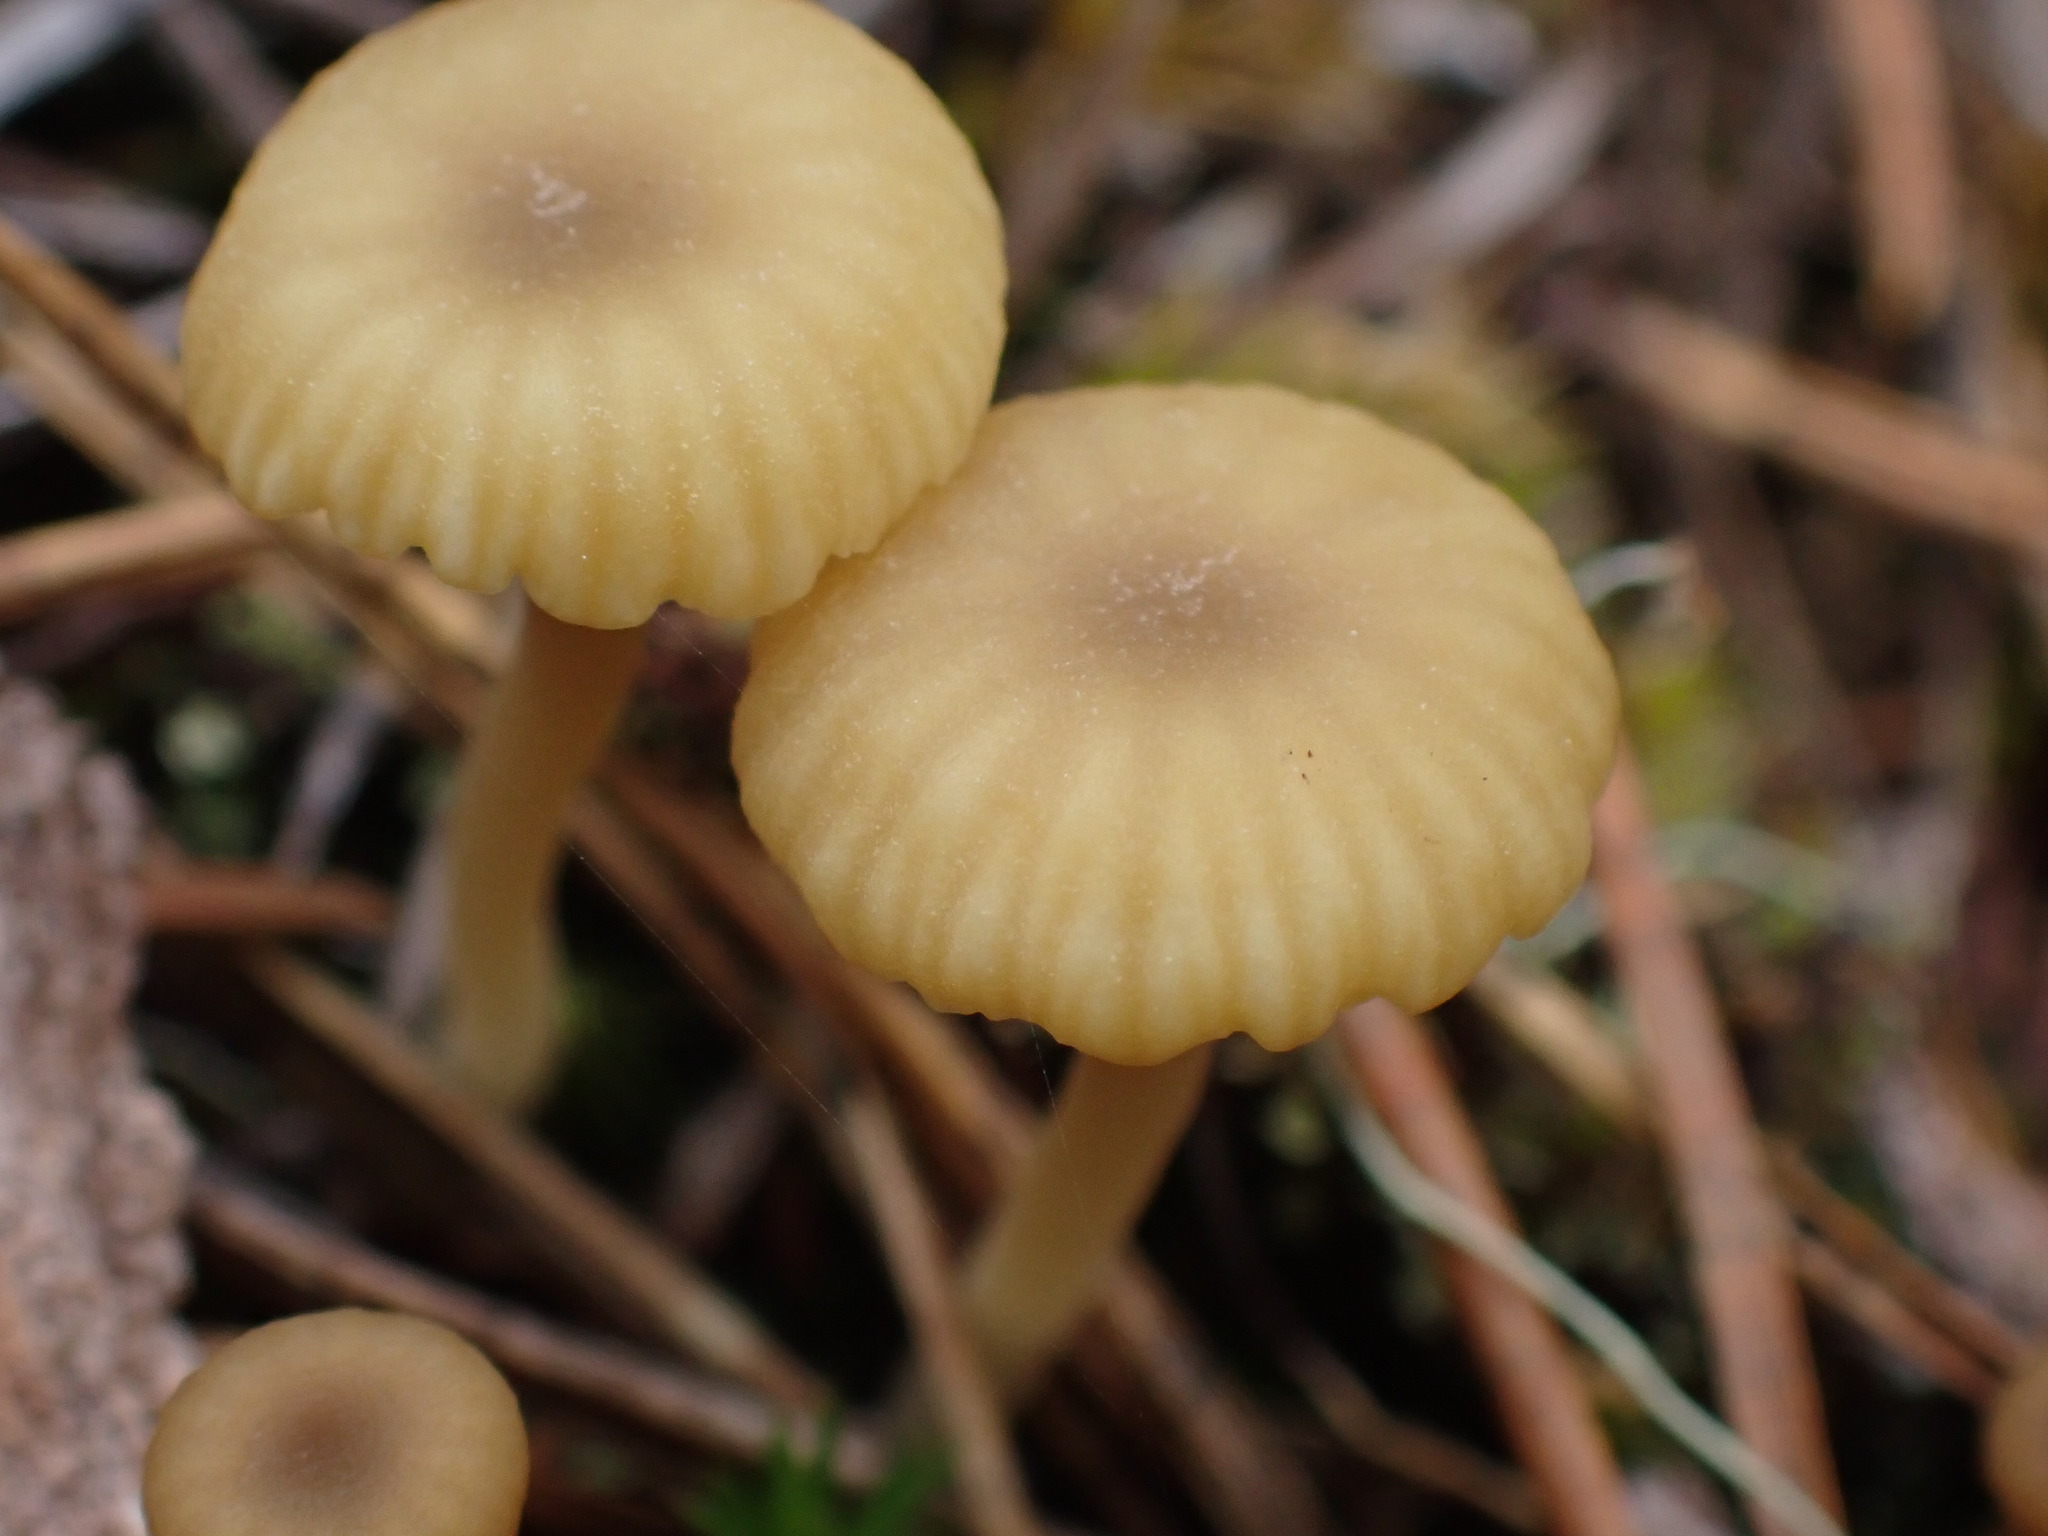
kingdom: Fungi
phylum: Basidiomycota
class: Agaricomycetes
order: Agaricales
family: Hygrophoraceae
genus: Lichenomphalia
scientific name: Lichenomphalia
